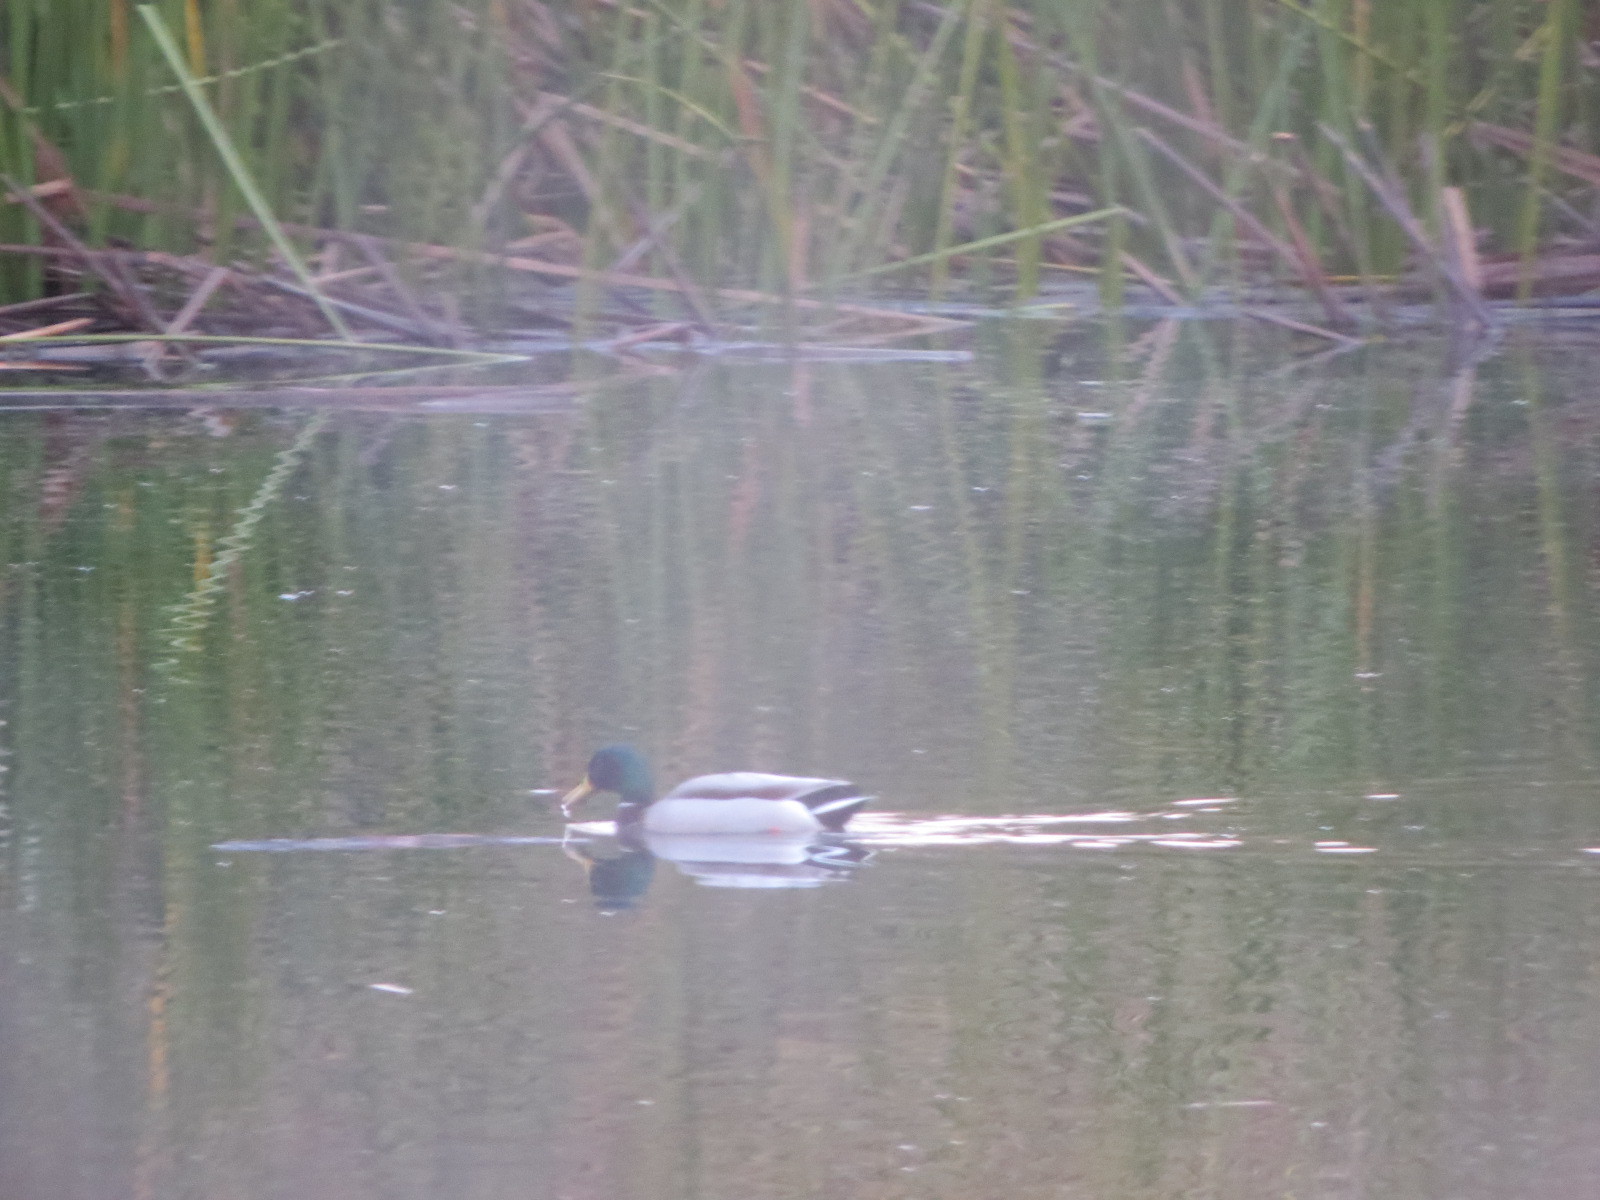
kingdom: Animalia
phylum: Chordata
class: Aves
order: Anseriformes
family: Anatidae
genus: Anas
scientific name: Anas platyrhynchos
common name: Mallard
